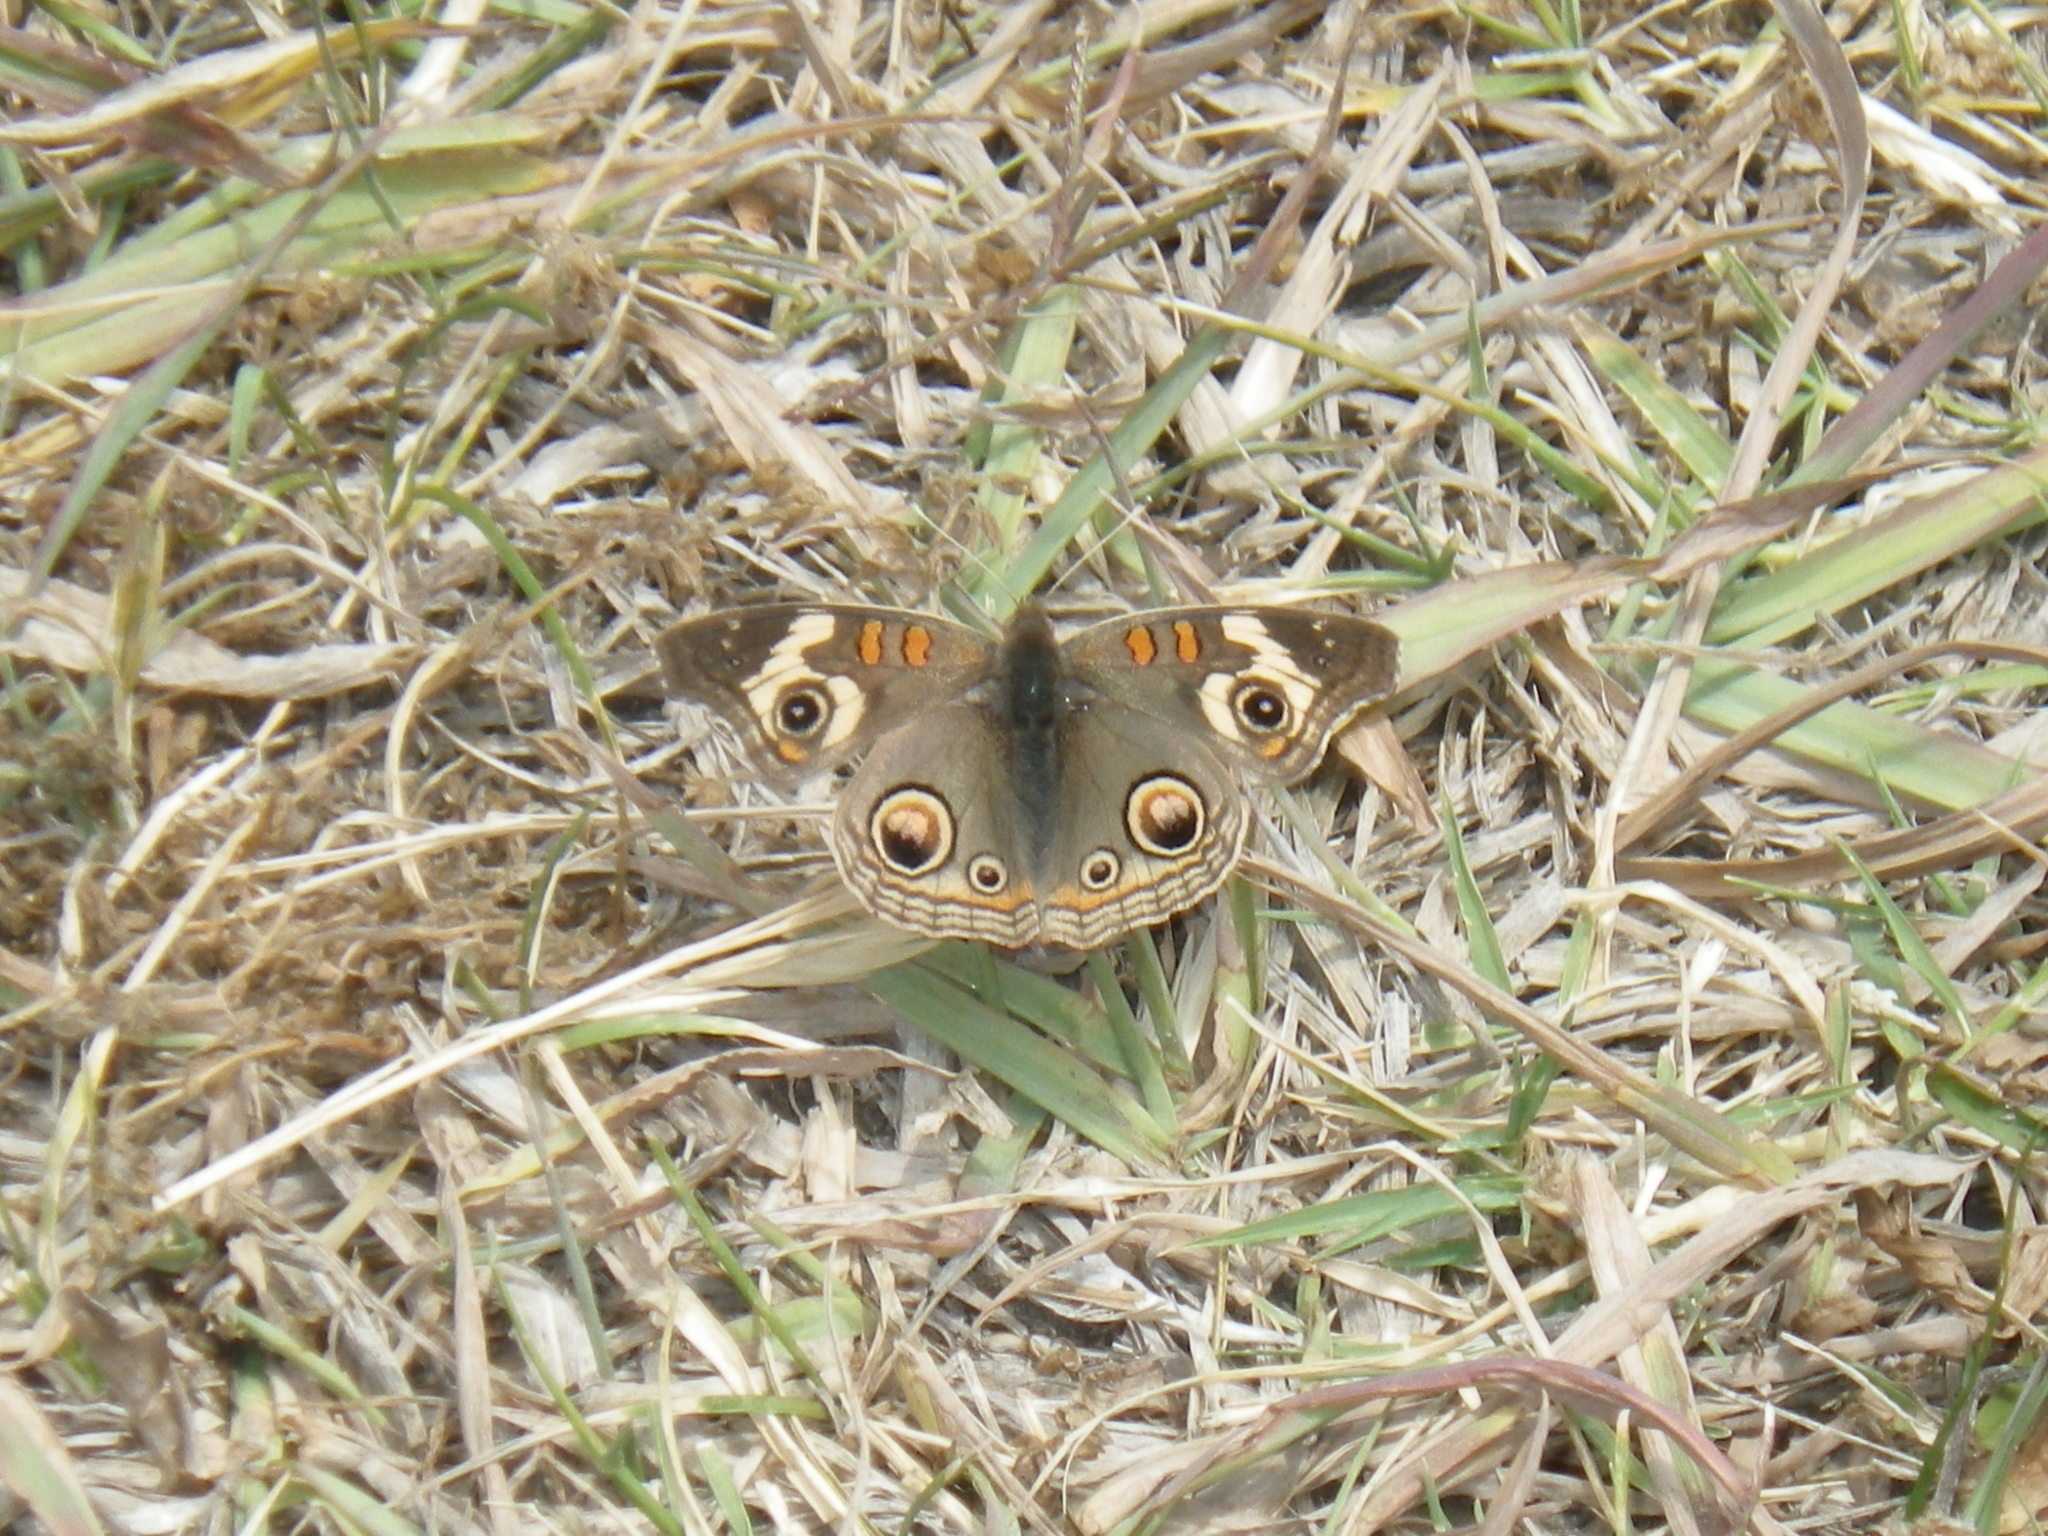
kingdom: Animalia
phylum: Arthropoda
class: Insecta
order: Lepidoptera
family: Nymphalidae
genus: Junonia
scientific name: Junonia grisea
